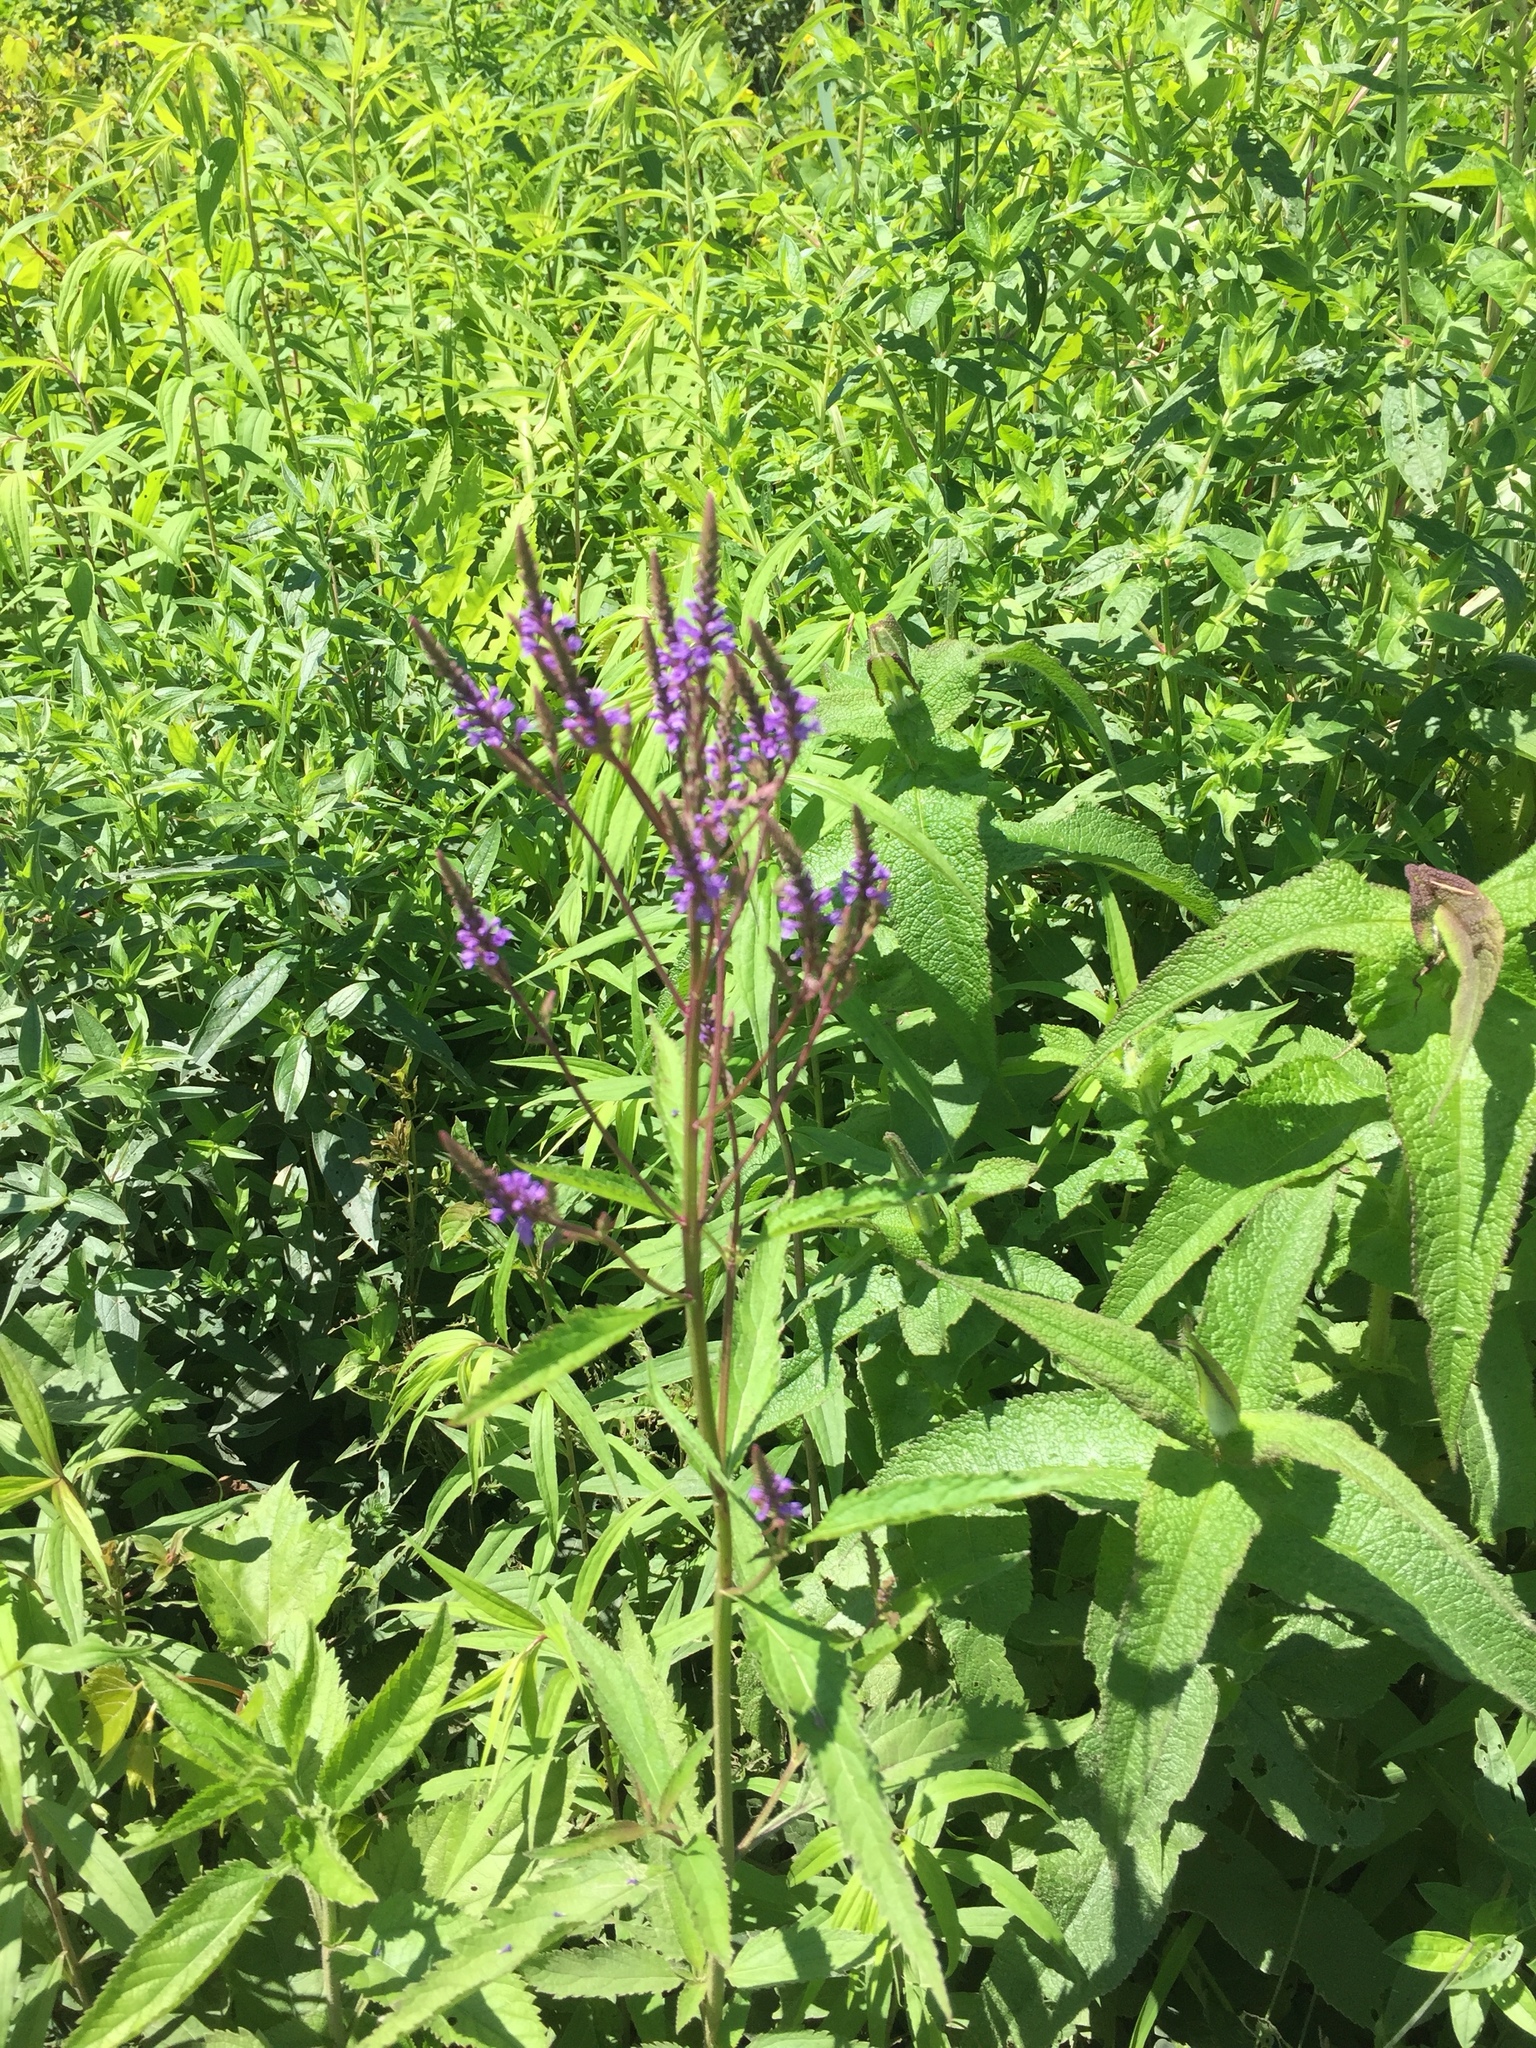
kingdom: Plantae
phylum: Tracheophyta
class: Magnoliopsida
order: Lamiales
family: Verbenaceae
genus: Verbena
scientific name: Verbena hastata
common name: American blue vervain
